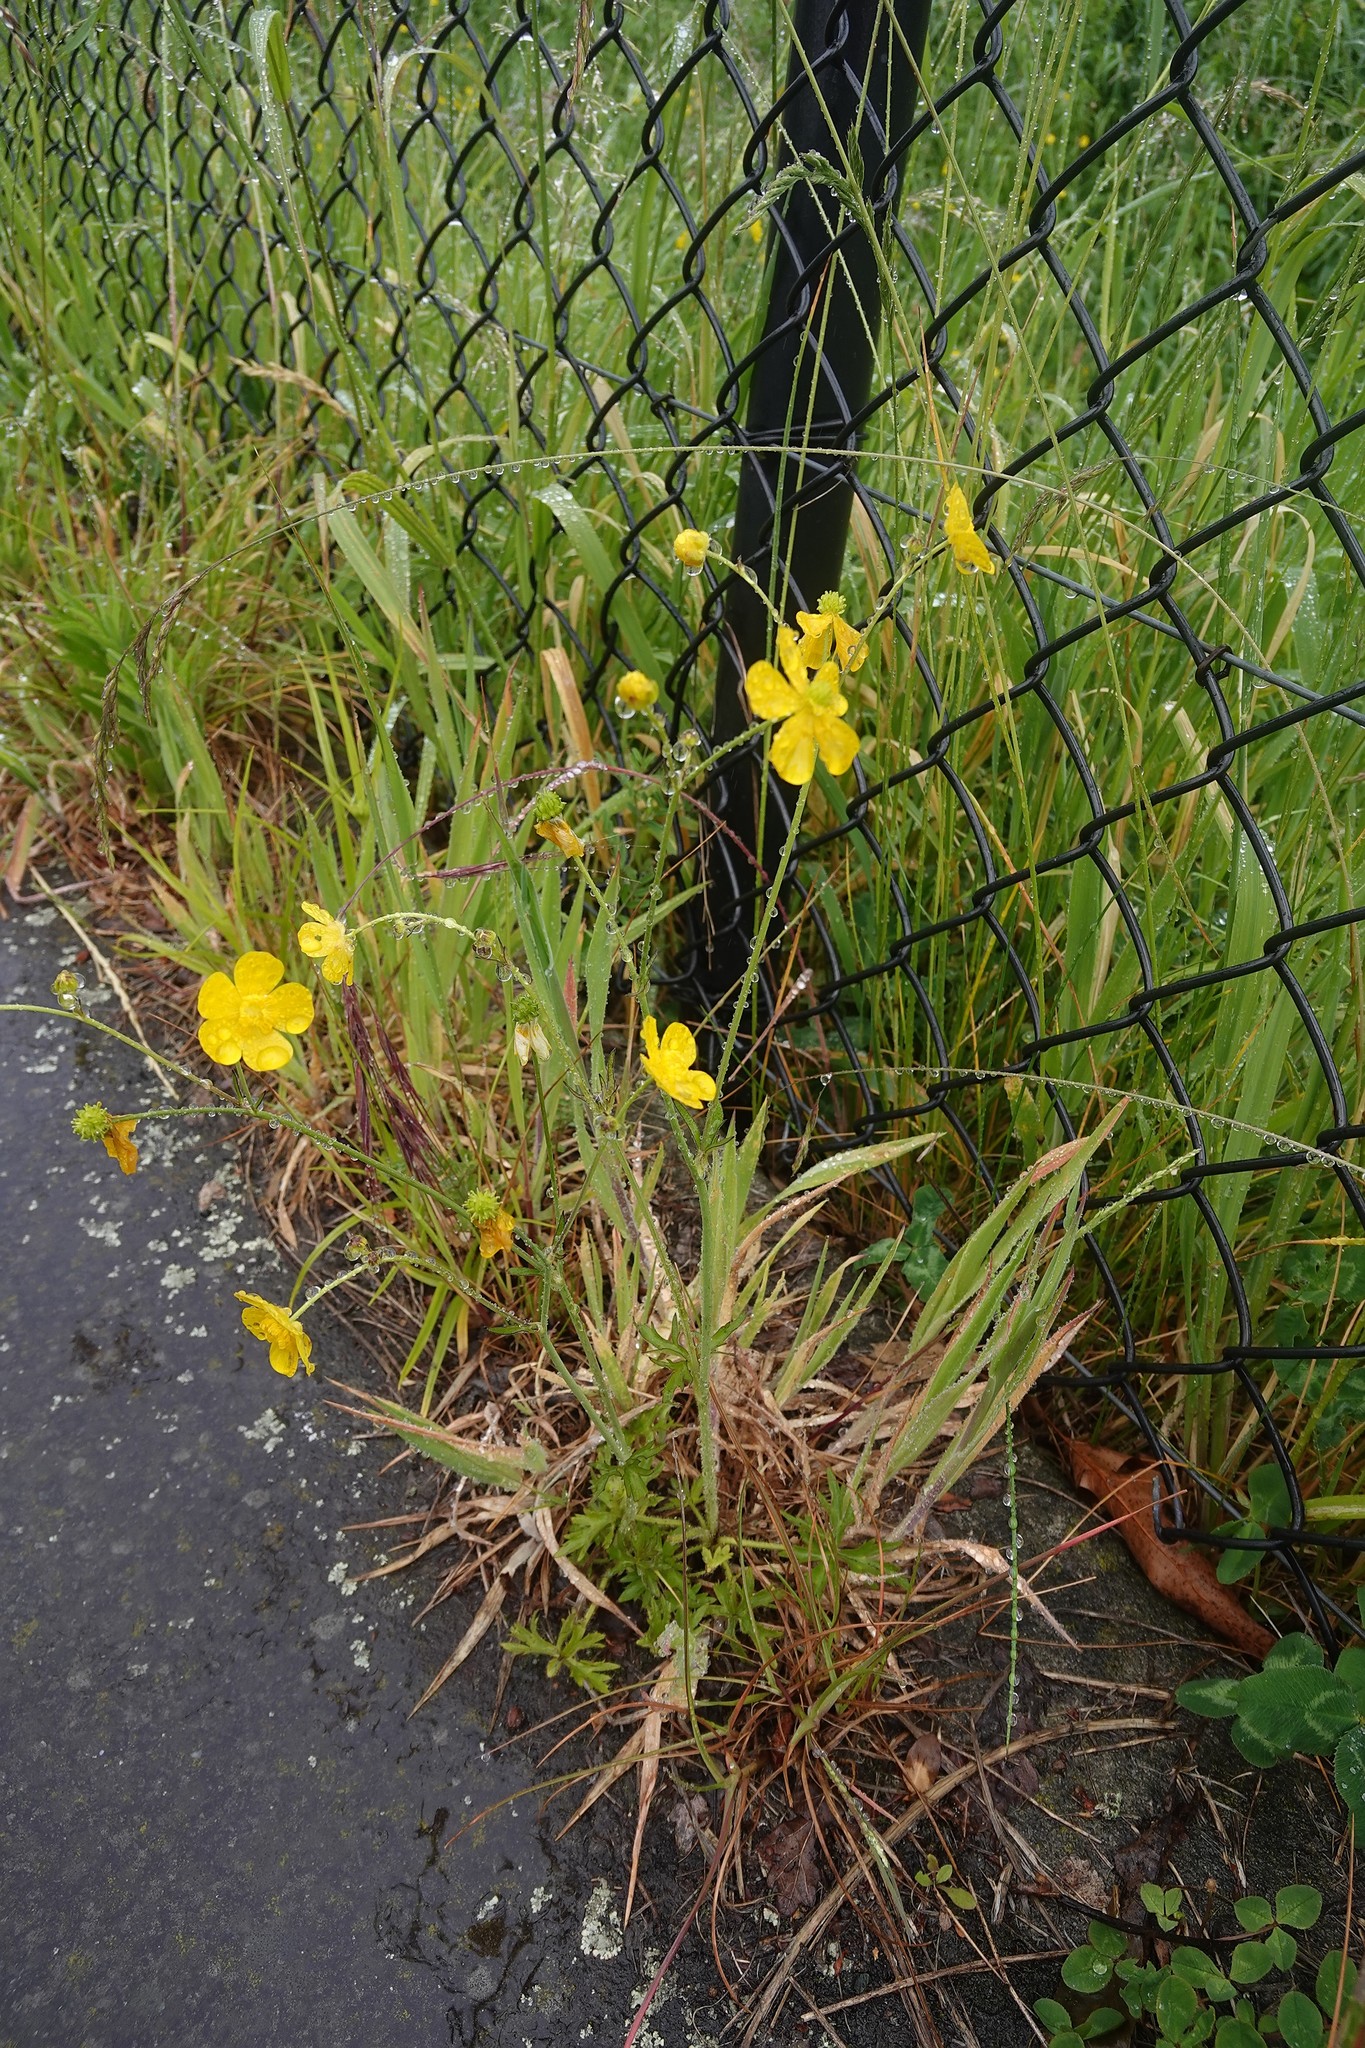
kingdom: Plantae
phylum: Tracheophyta
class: Magnoliopsida
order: Ranunculales
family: Ranunculaceae
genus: Ranunculus
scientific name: Ranunculus acris
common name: Meadow buttercup
